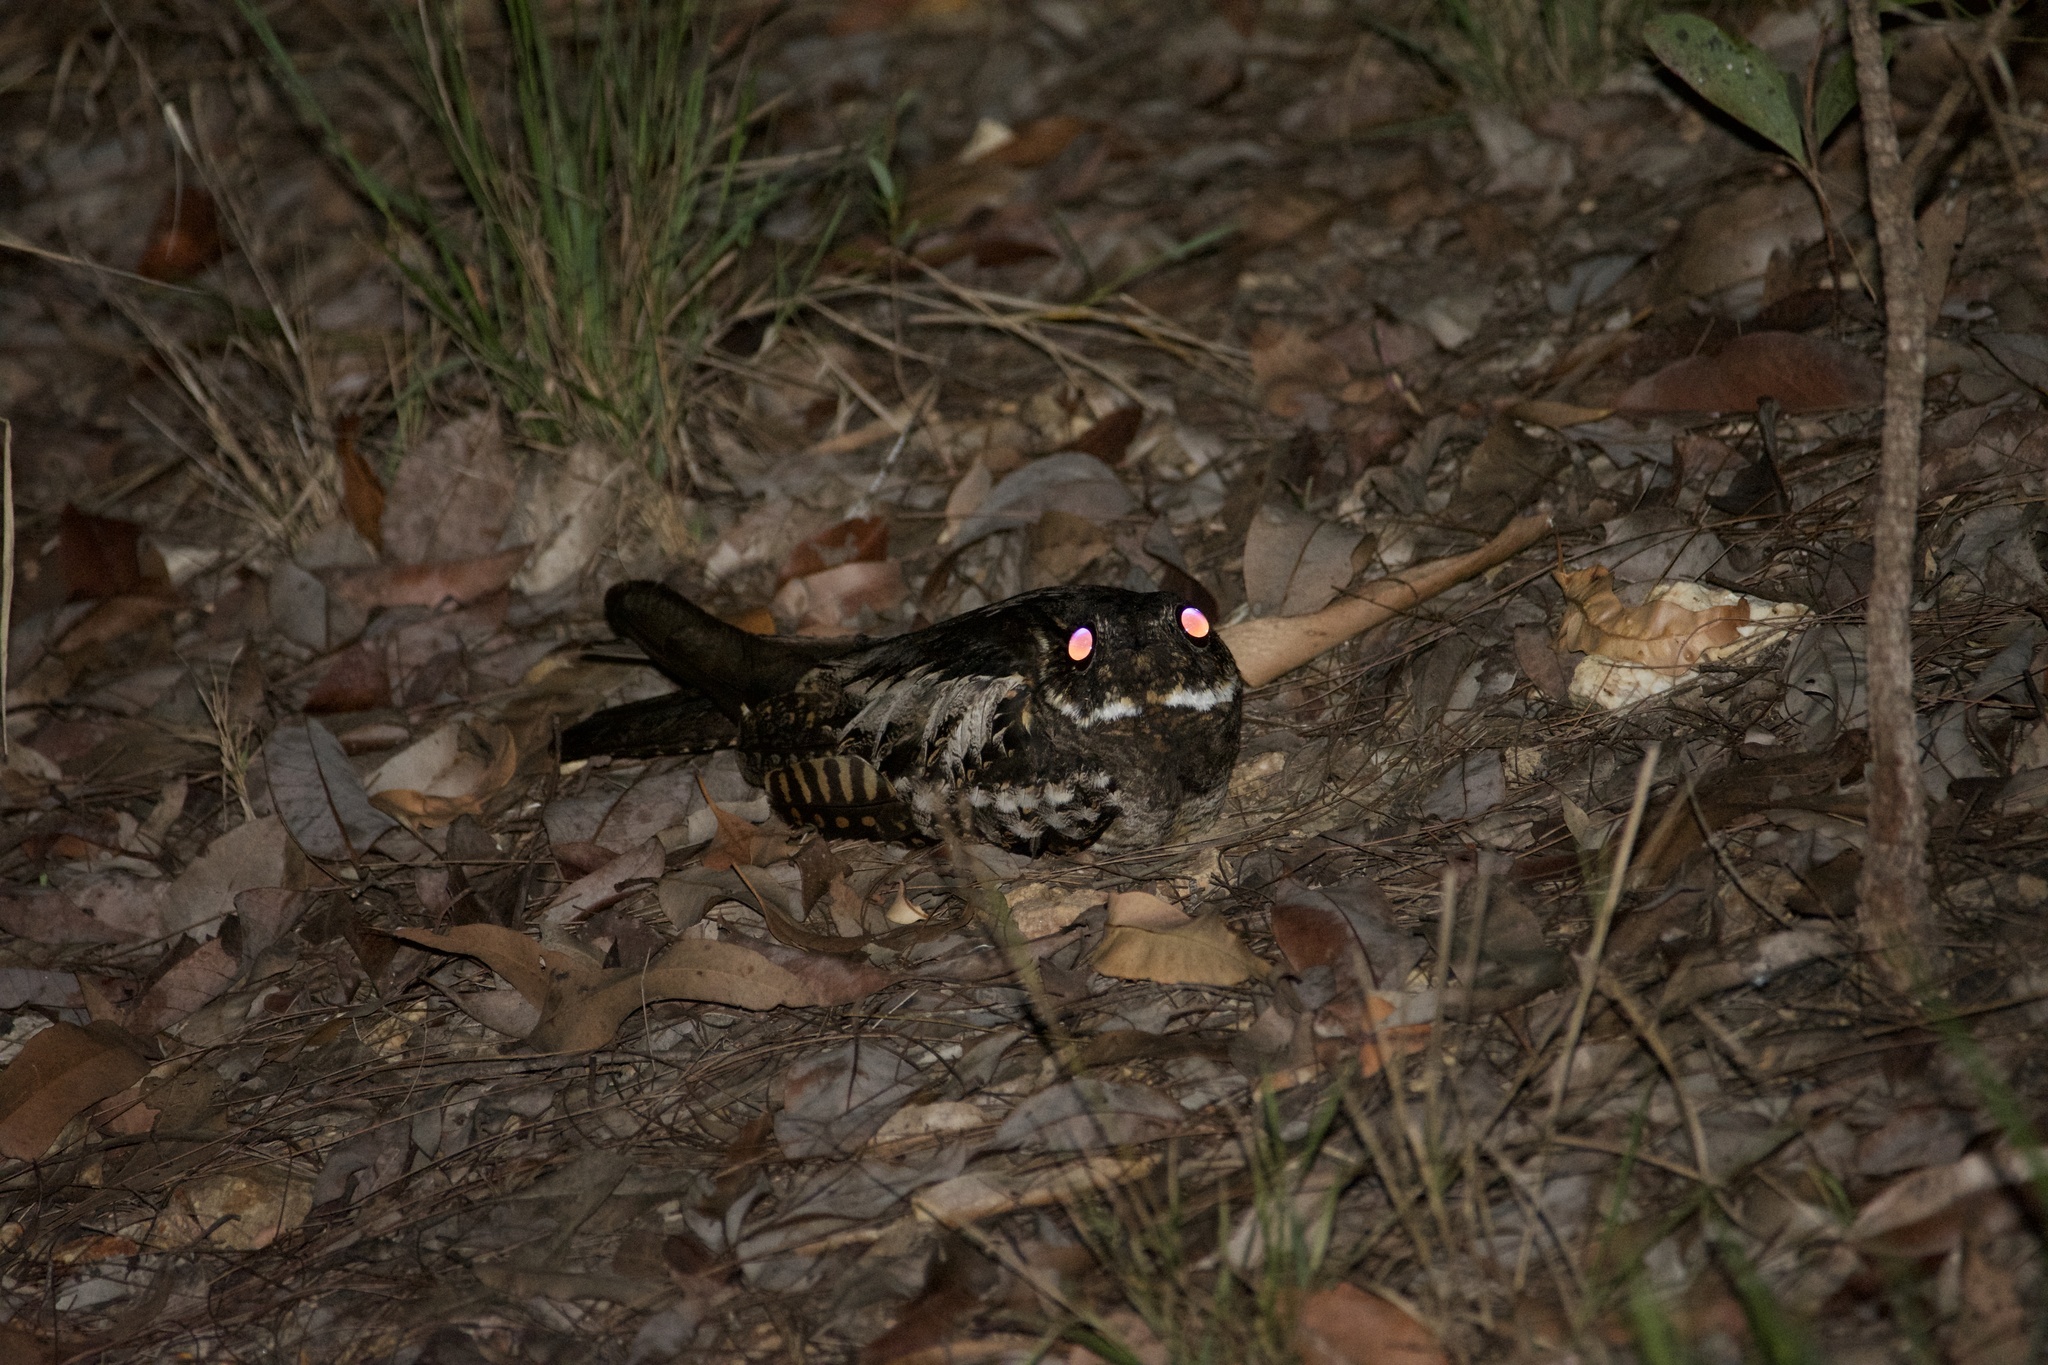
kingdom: Animalia
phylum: Chordata
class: Aves
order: Caprimulgiformes
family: Caprimulgidae
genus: Caprimulgus
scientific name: Caprimulgus macrurus
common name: Large-tailed nightjar
